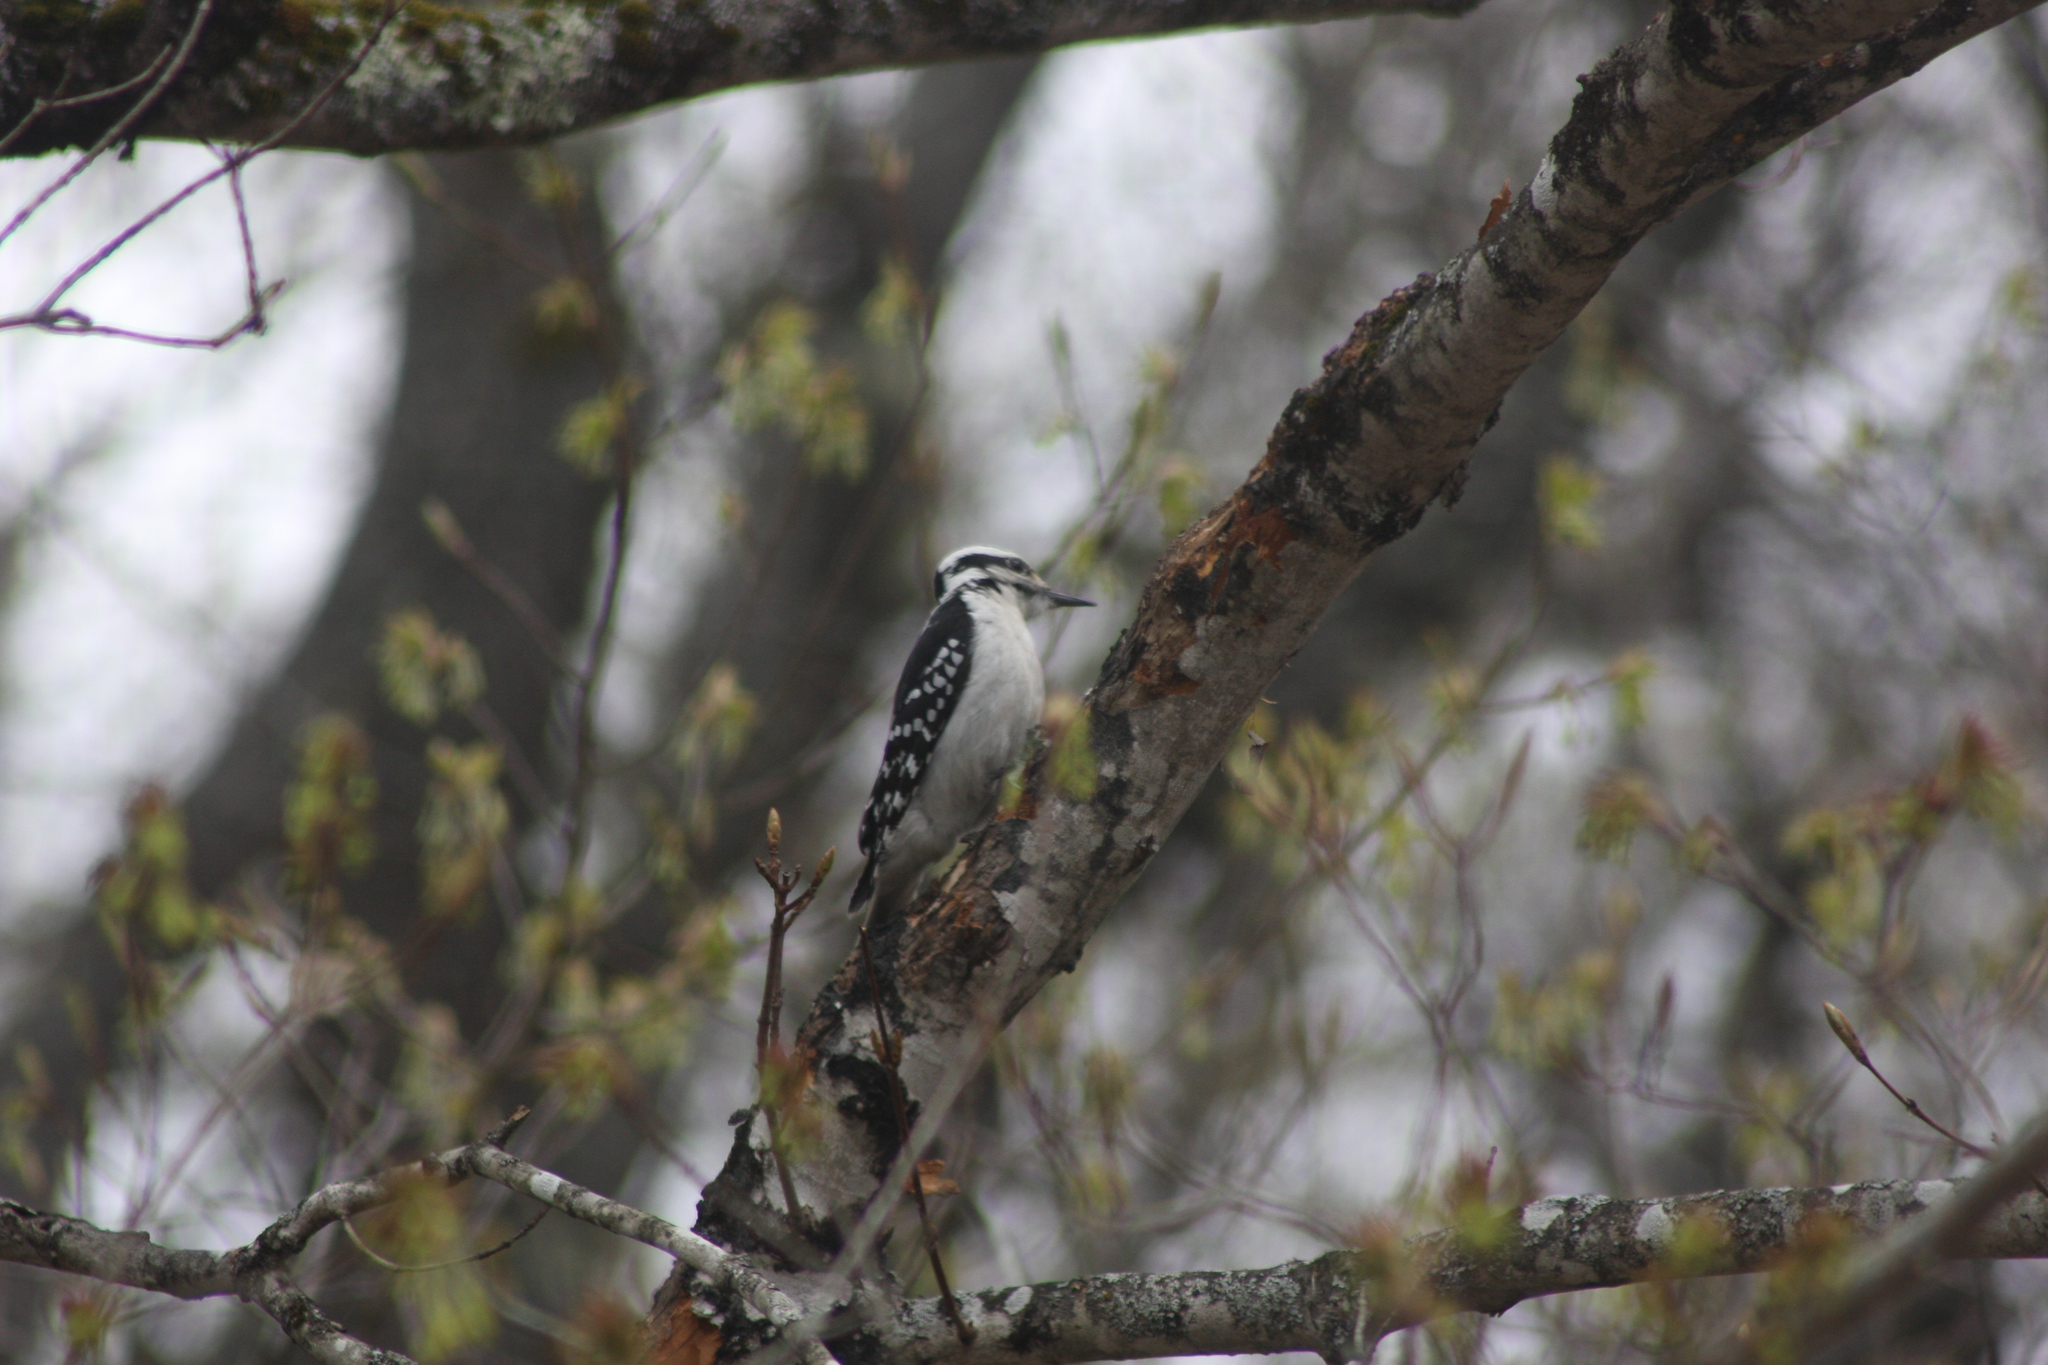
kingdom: Animalia
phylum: Chordata
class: Aves
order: Piciformes
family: Picidae
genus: Leuconotopicus
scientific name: Leuconotopicus villosus
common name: Hairy woodpecker
